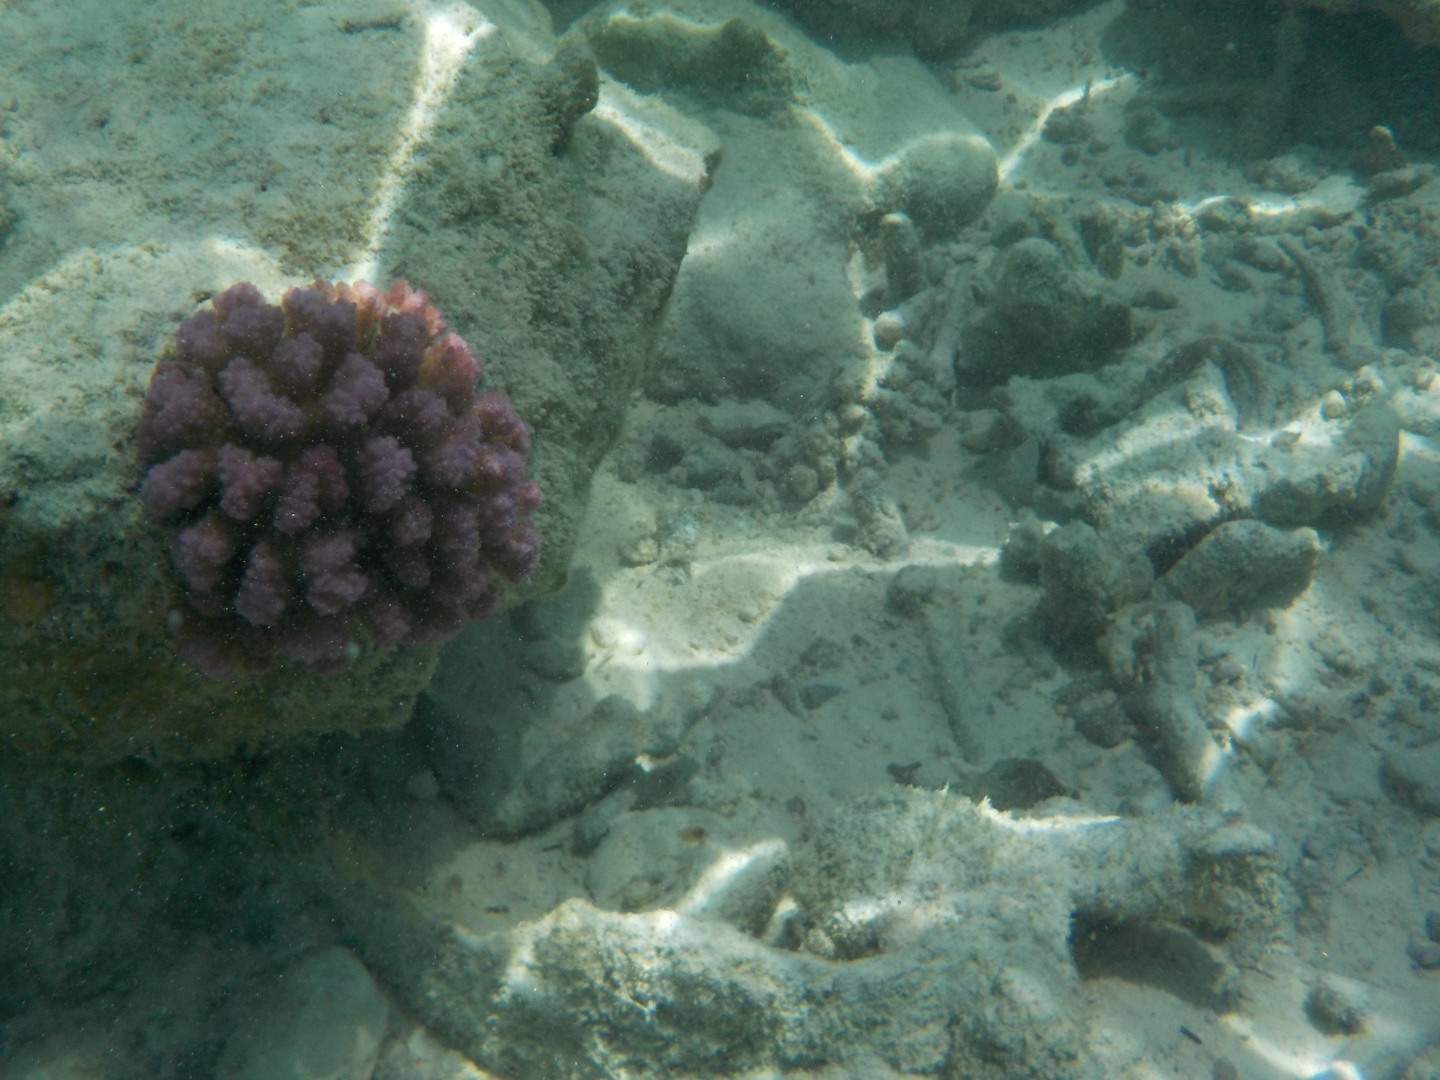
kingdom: Animalia
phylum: Cnidaria
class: Anthozoa
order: Scleractinia
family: Pocilloporidae
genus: Pocillopora
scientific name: Pocillopora verrucosa
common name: Cauliflower coral
